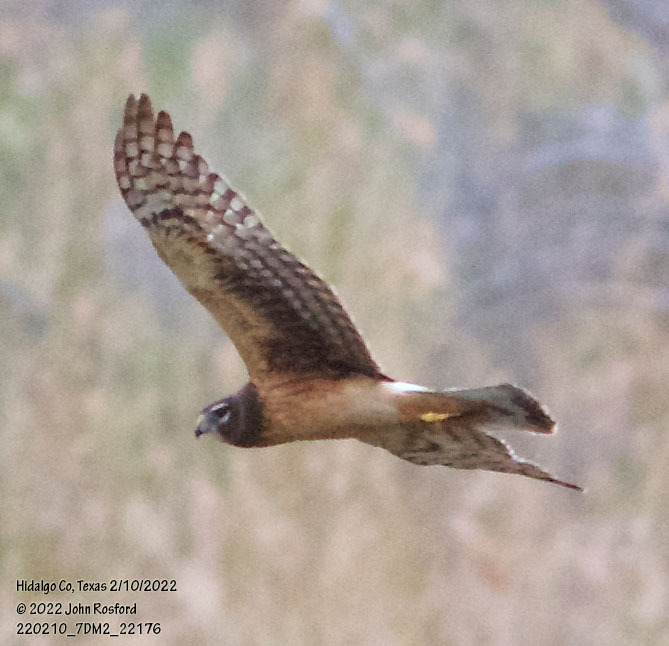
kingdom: Animalia
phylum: Chordata
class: Aves
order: Accipitriformes
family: Accipitridae
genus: Circus
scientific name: Circus cyaneus
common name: Hen harrier
